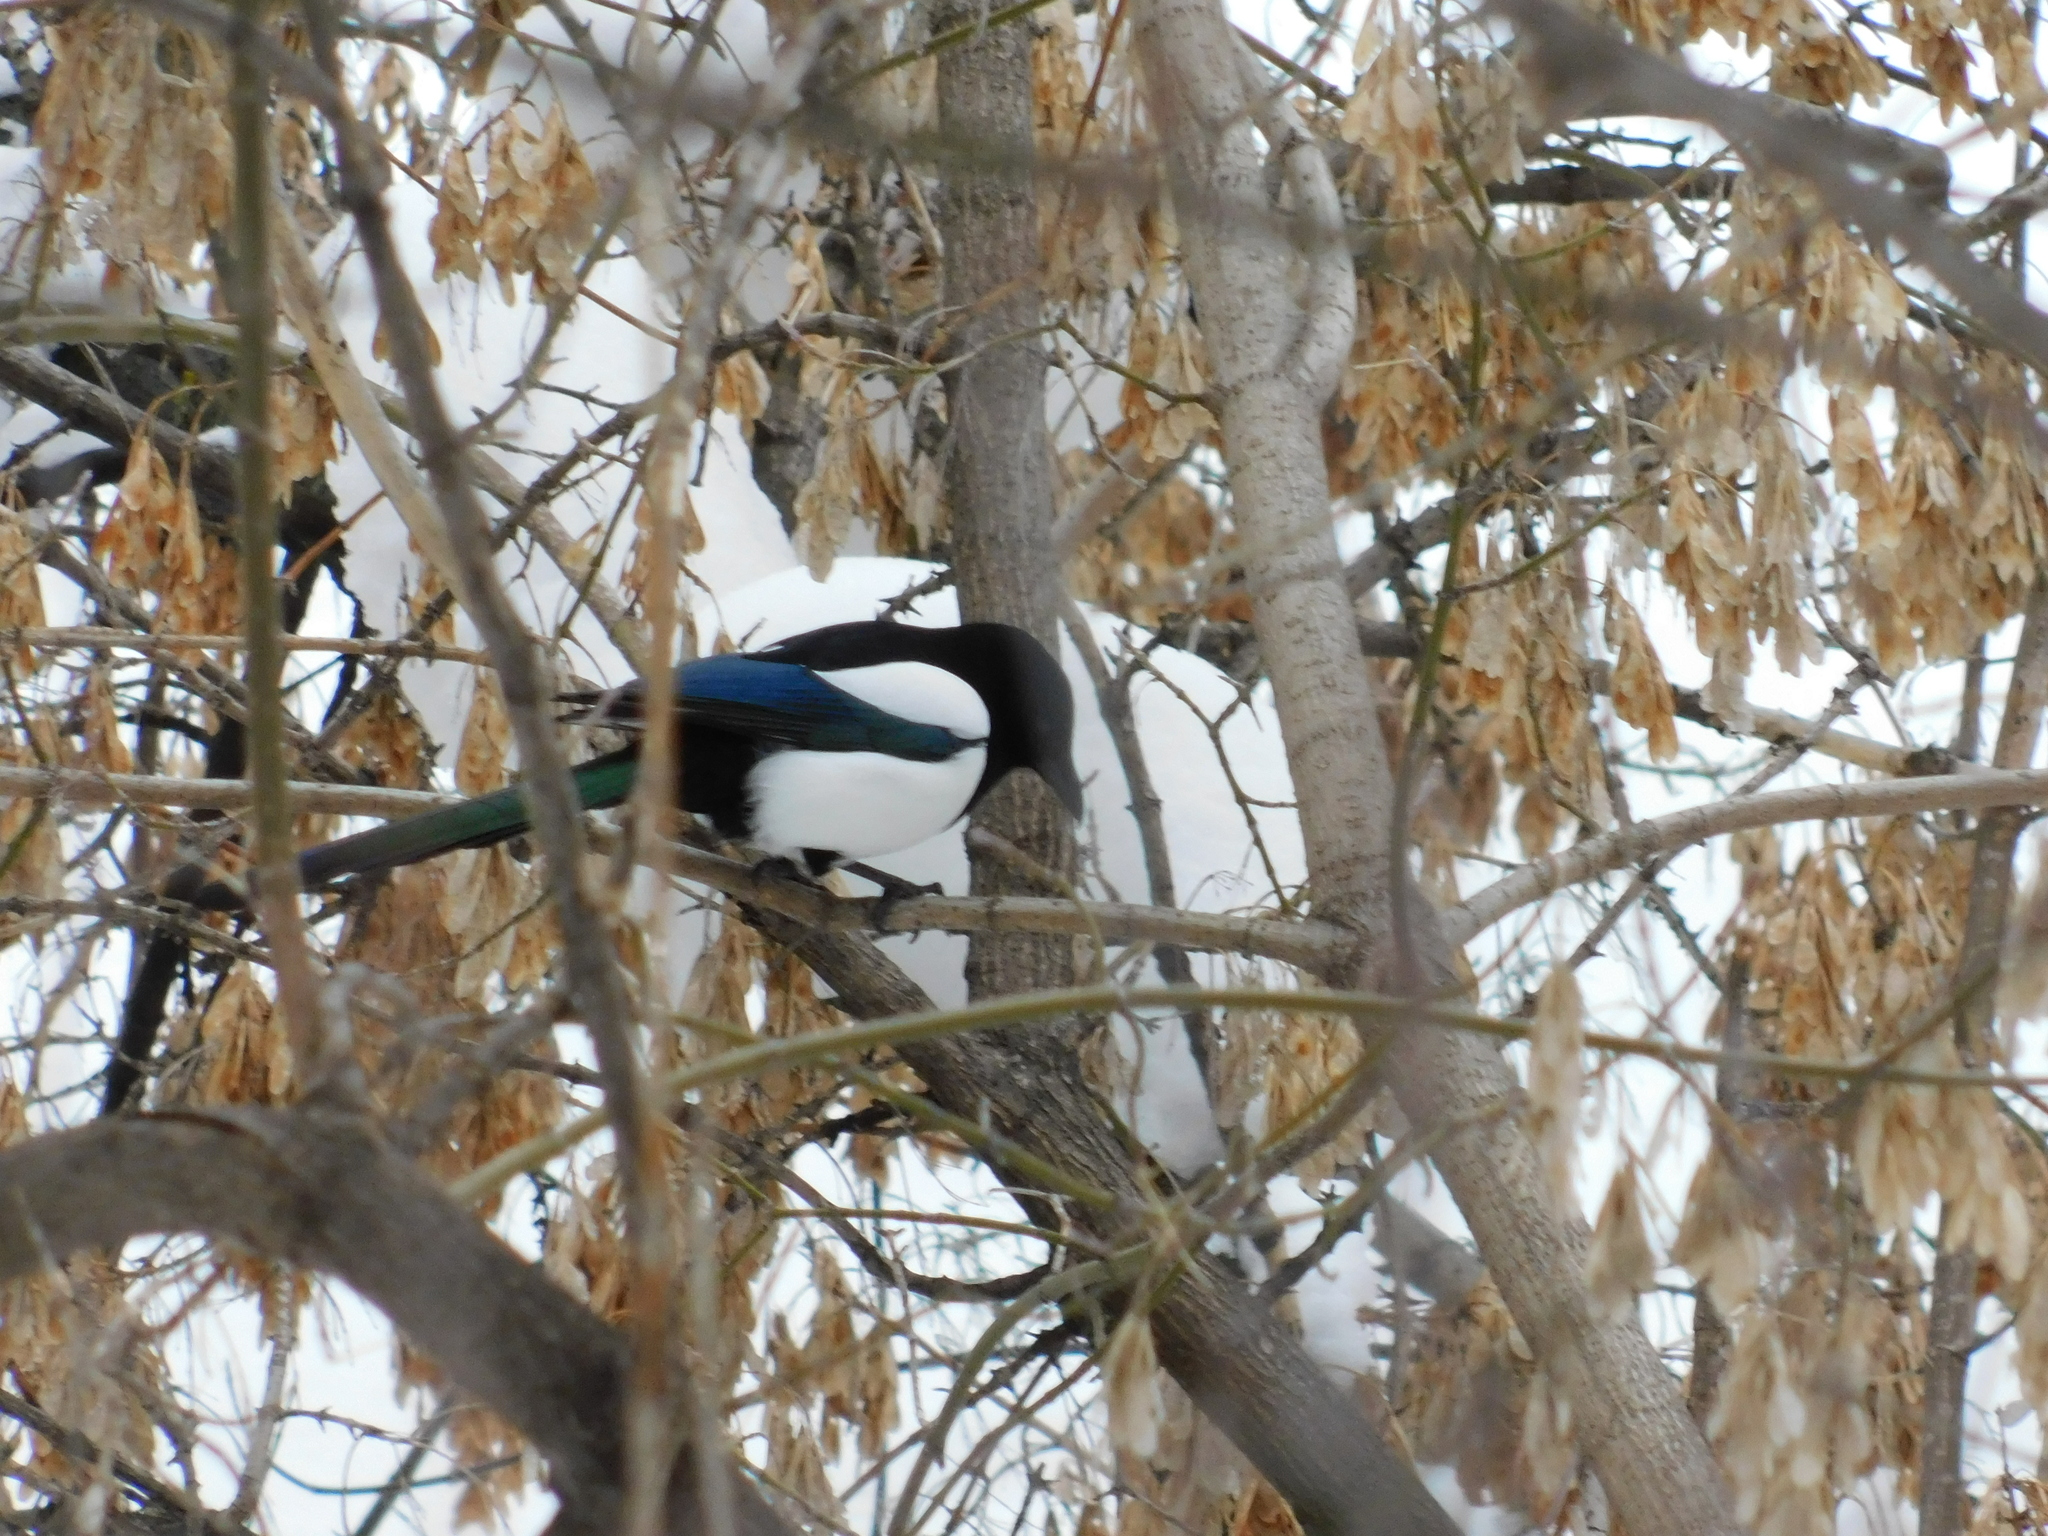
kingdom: Animalia
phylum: Chordata
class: Aves
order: Passeriformes
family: Corvidae
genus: Pica
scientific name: Pica pica
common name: Eurasian magpie
